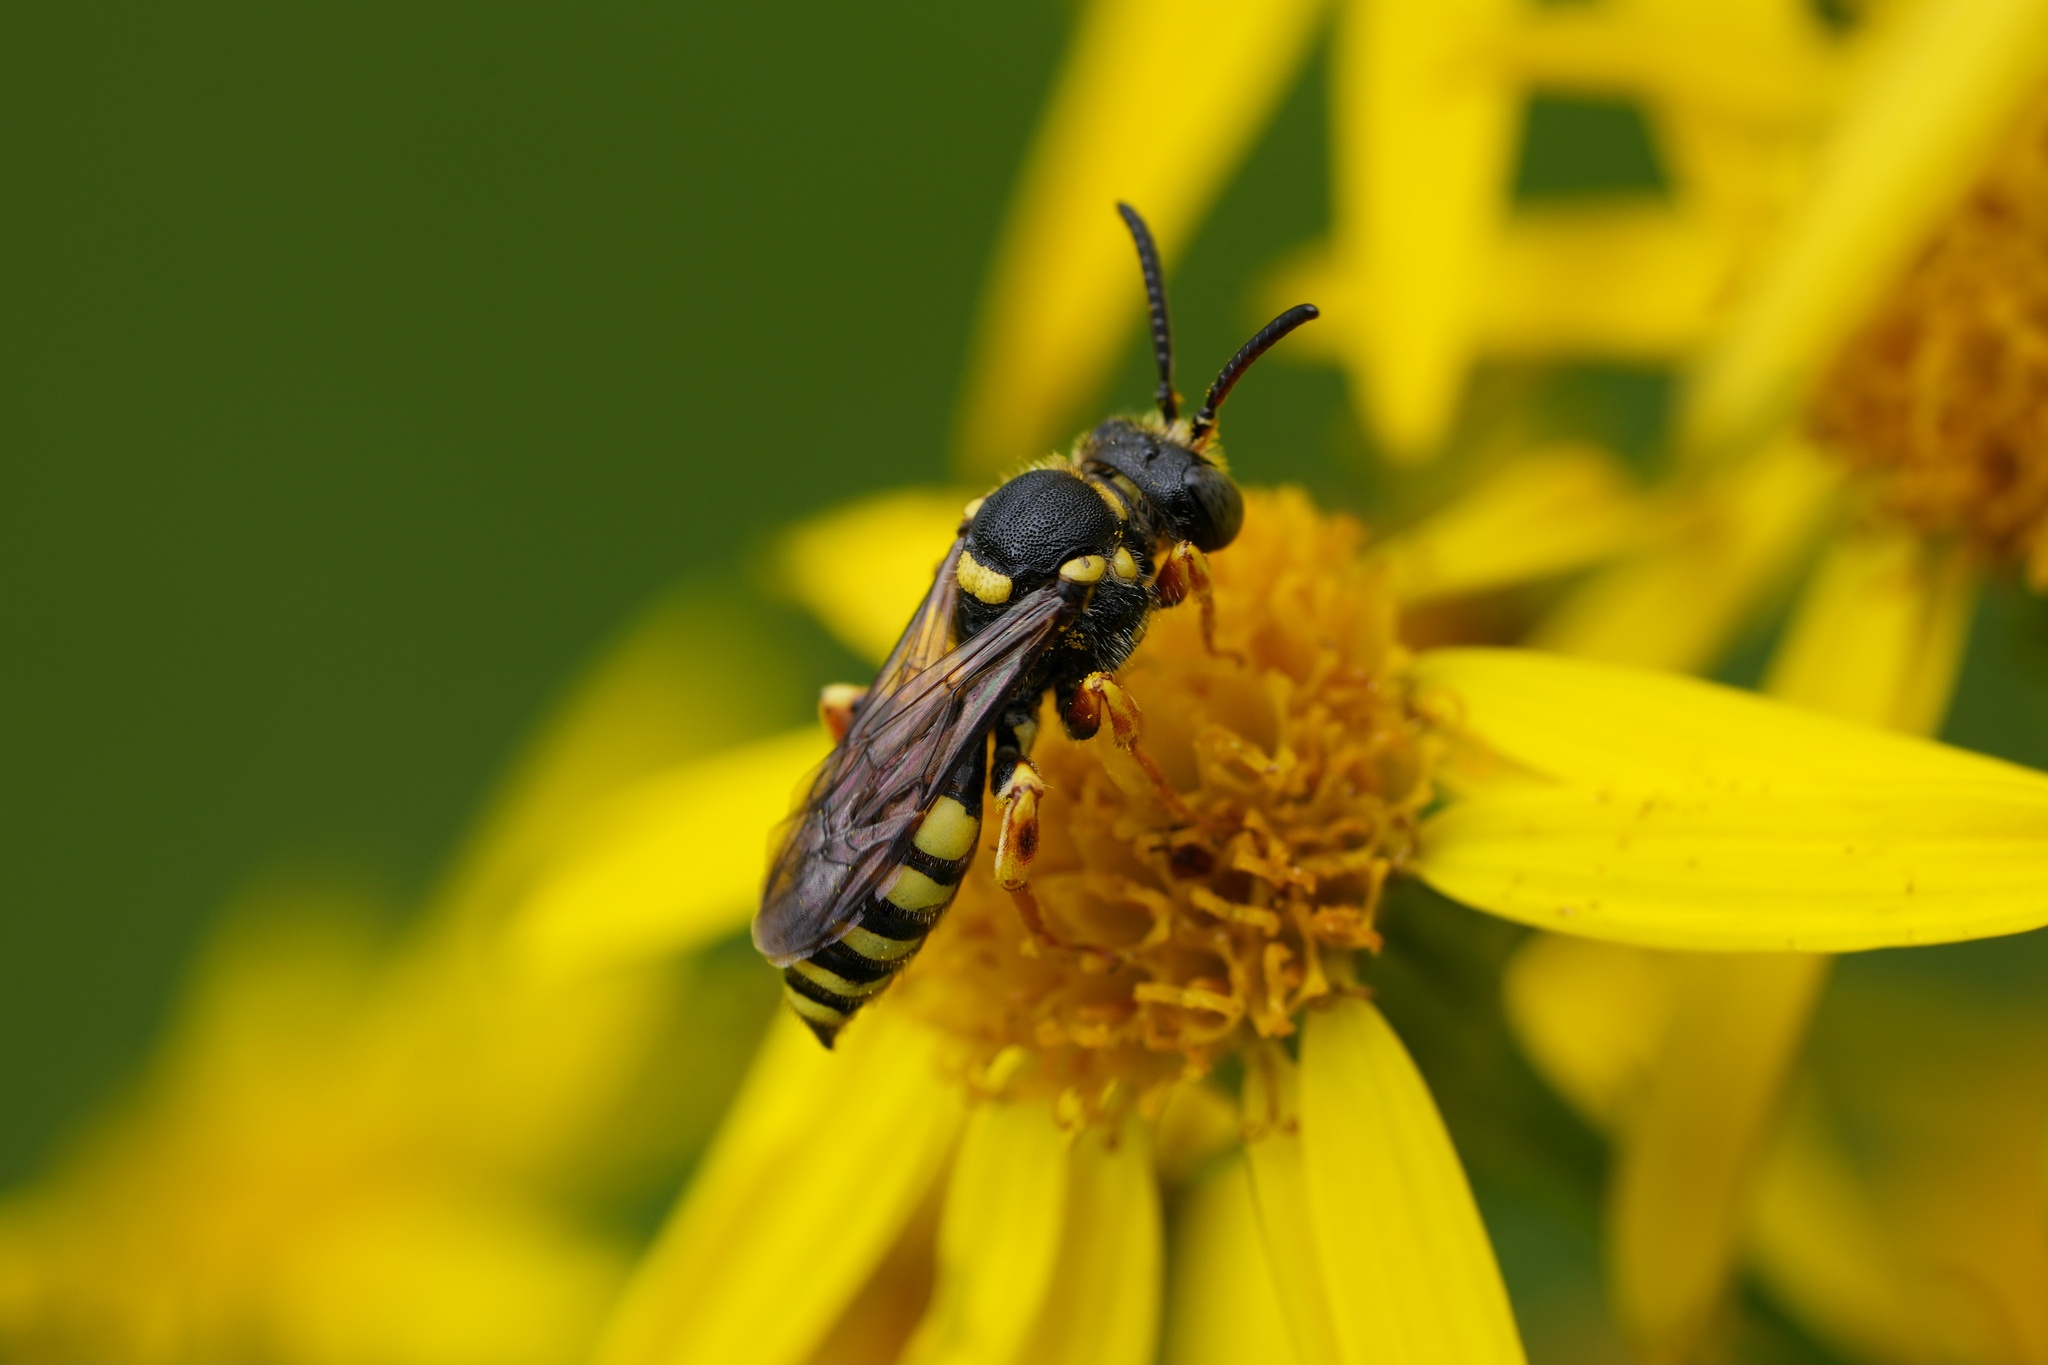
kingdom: Animalia
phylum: Arthropoda
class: Insecta
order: Hymenoptera
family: Apidae
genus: Nomada
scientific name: Nomada rufipes
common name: Black-horned nomad bee
